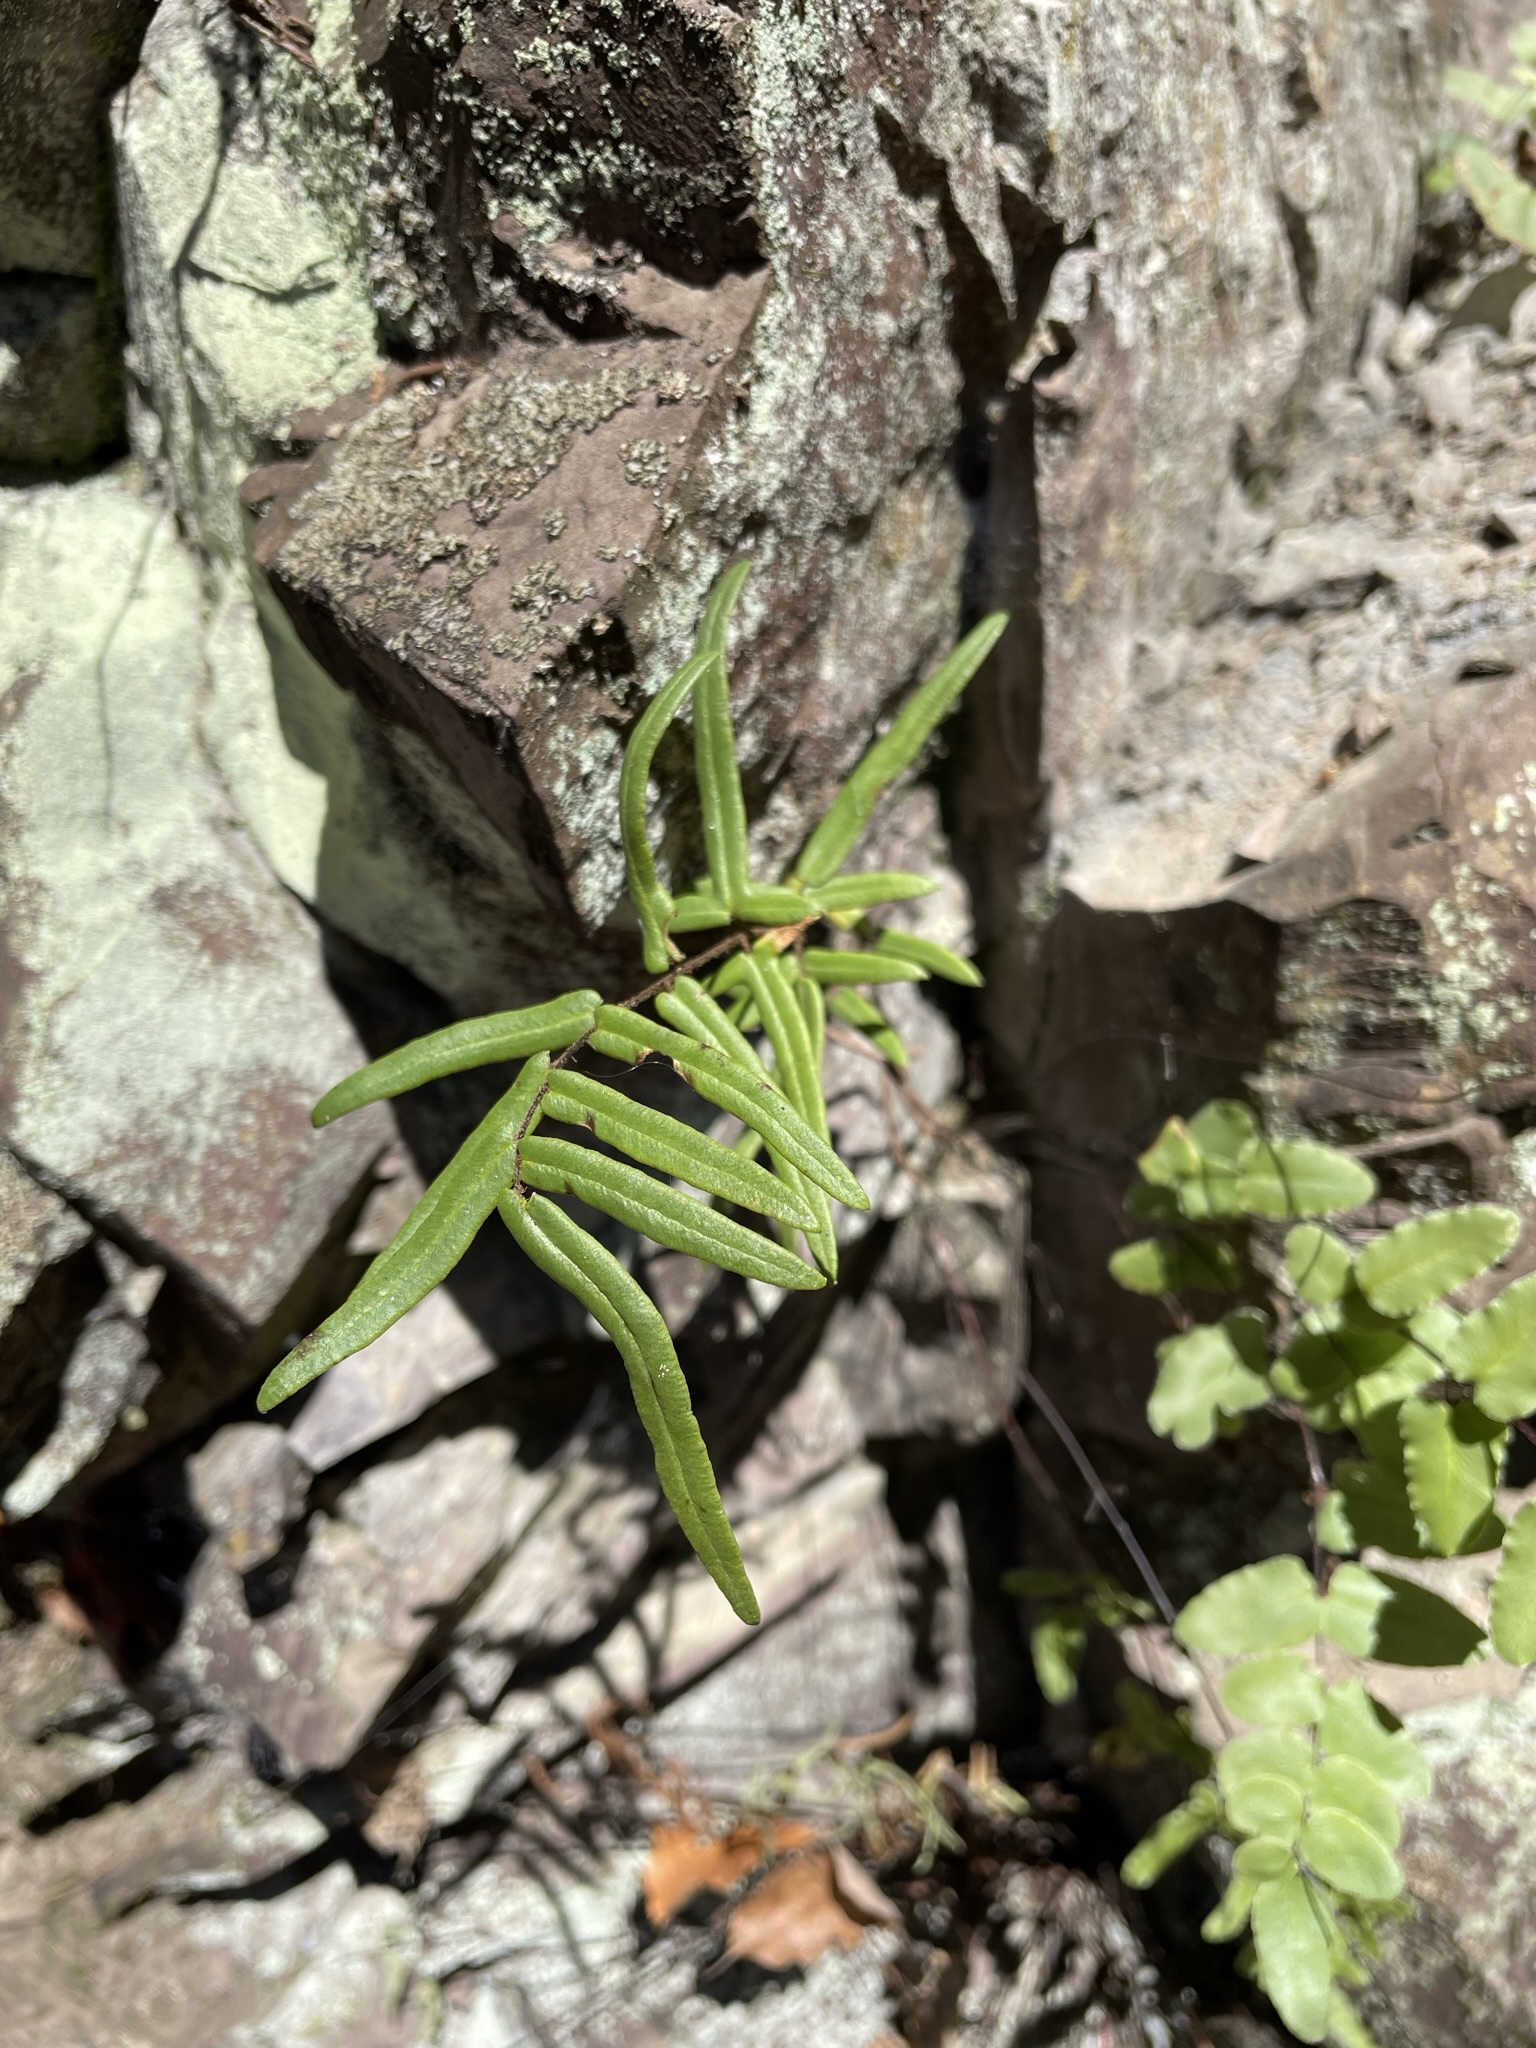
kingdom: Plantae
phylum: Tracheophyta
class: Polypodiopsida
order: Polypodiales
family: Pteridaceae
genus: Pellaea
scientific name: Pellaea atropurpurea
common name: Hairy cliffbrake
